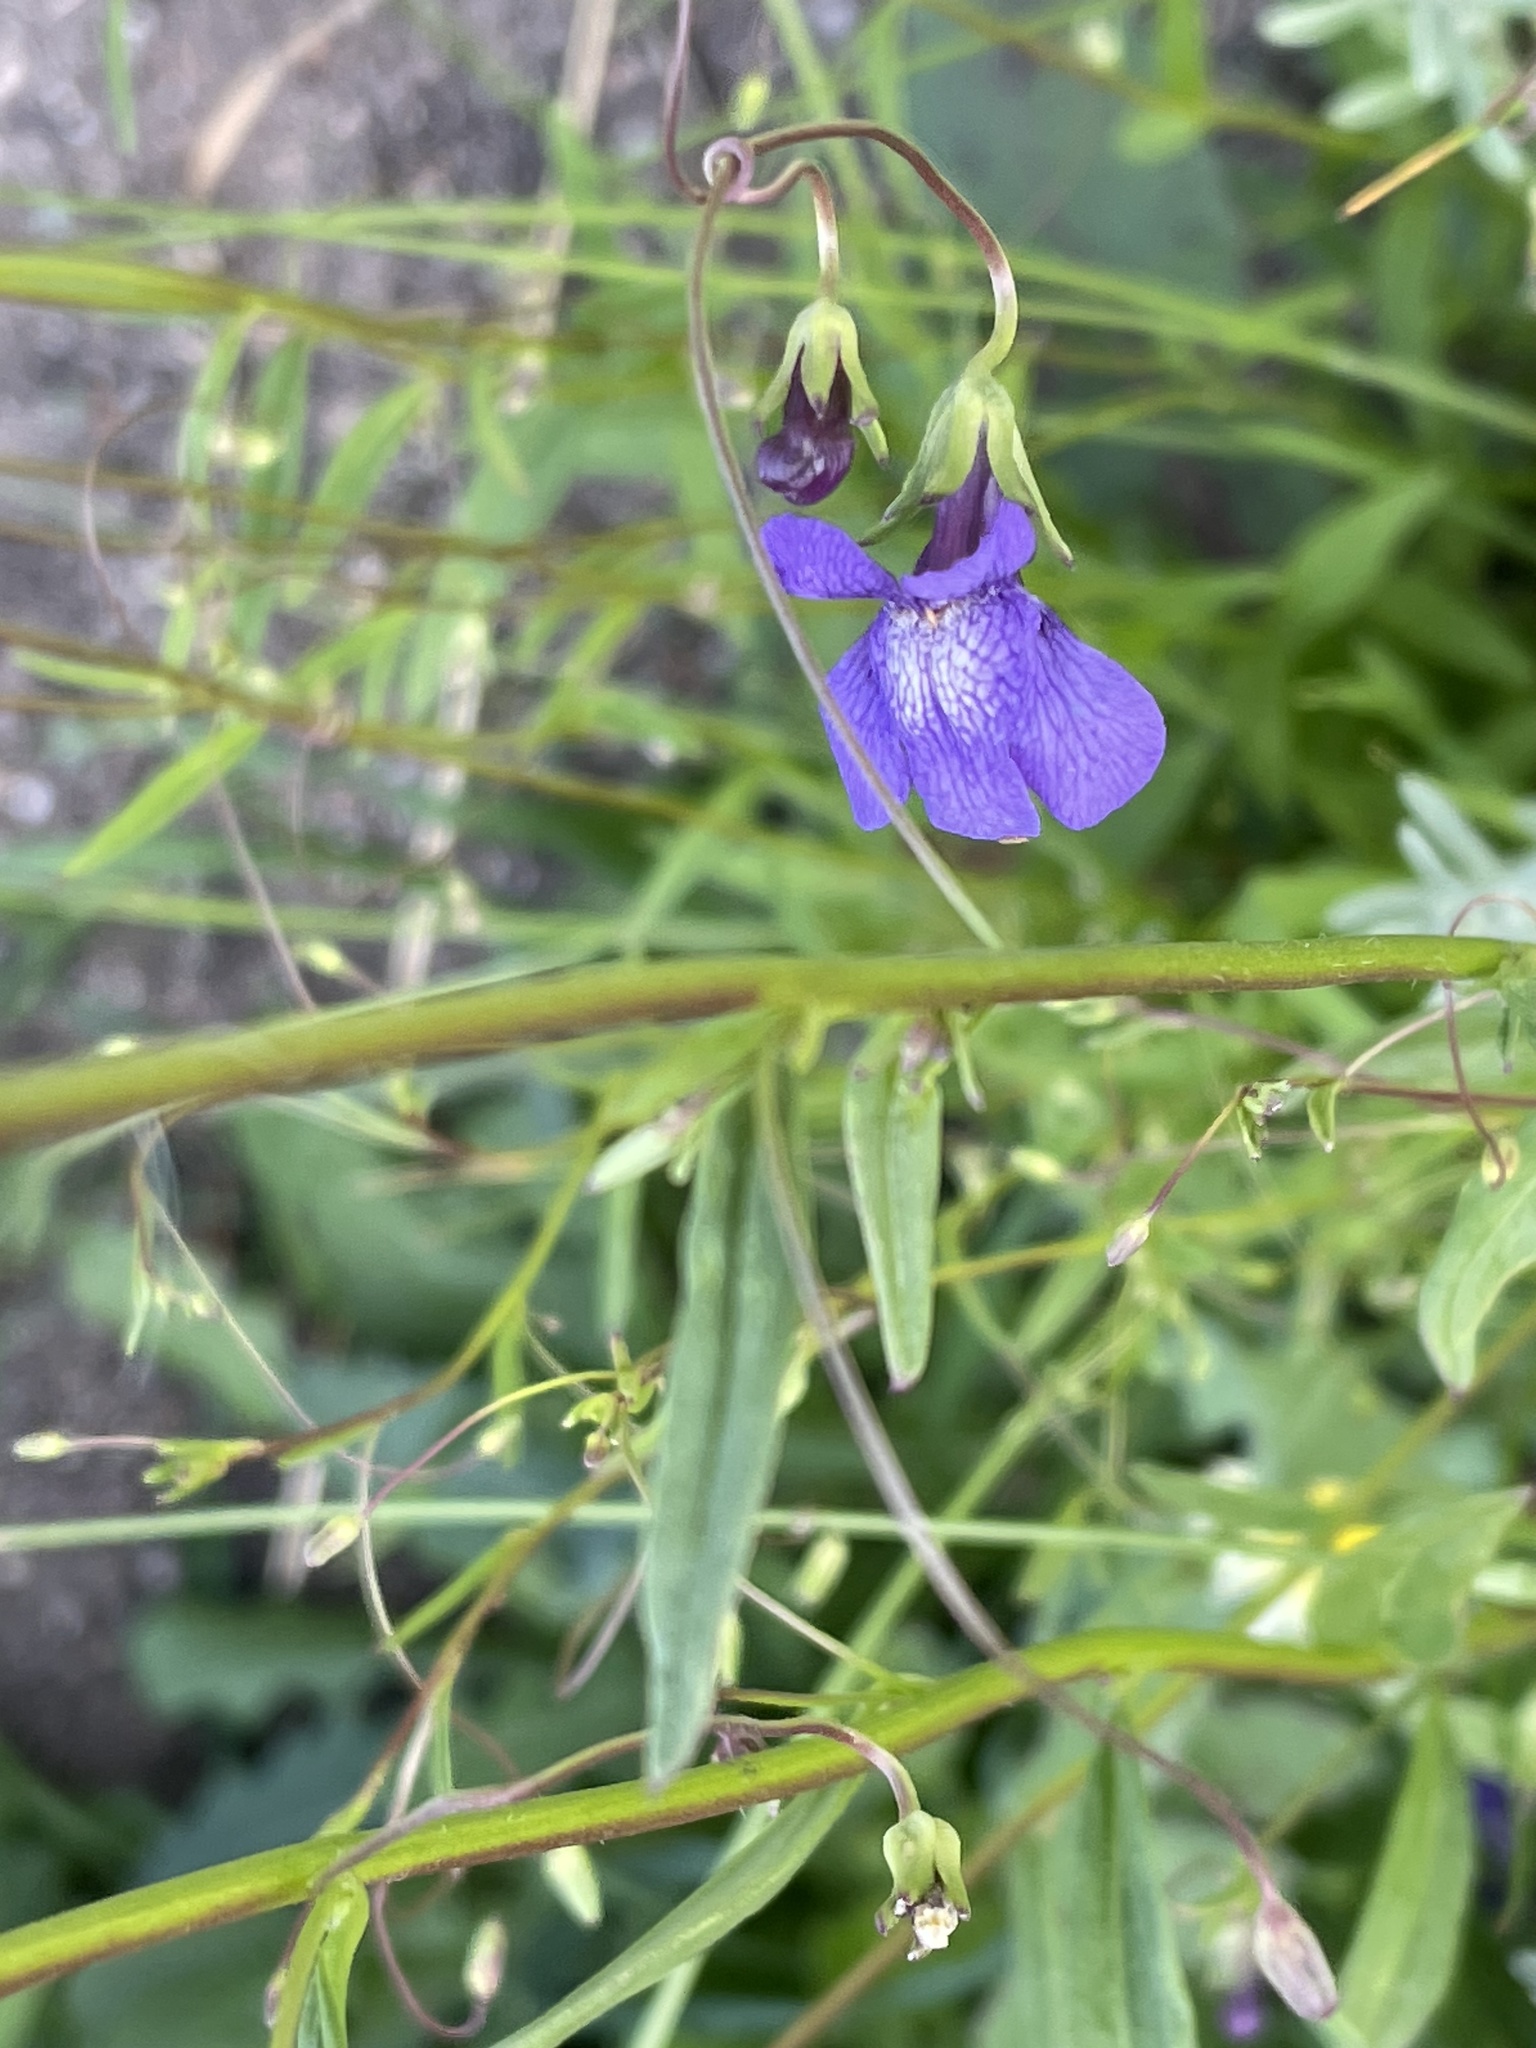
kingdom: Plantae
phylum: Tracheophyta
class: Magnoliopsida
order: Lamiales
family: Plantaginaceae
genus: Neogaerrhinum
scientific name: Neogaerrhinum strictum
